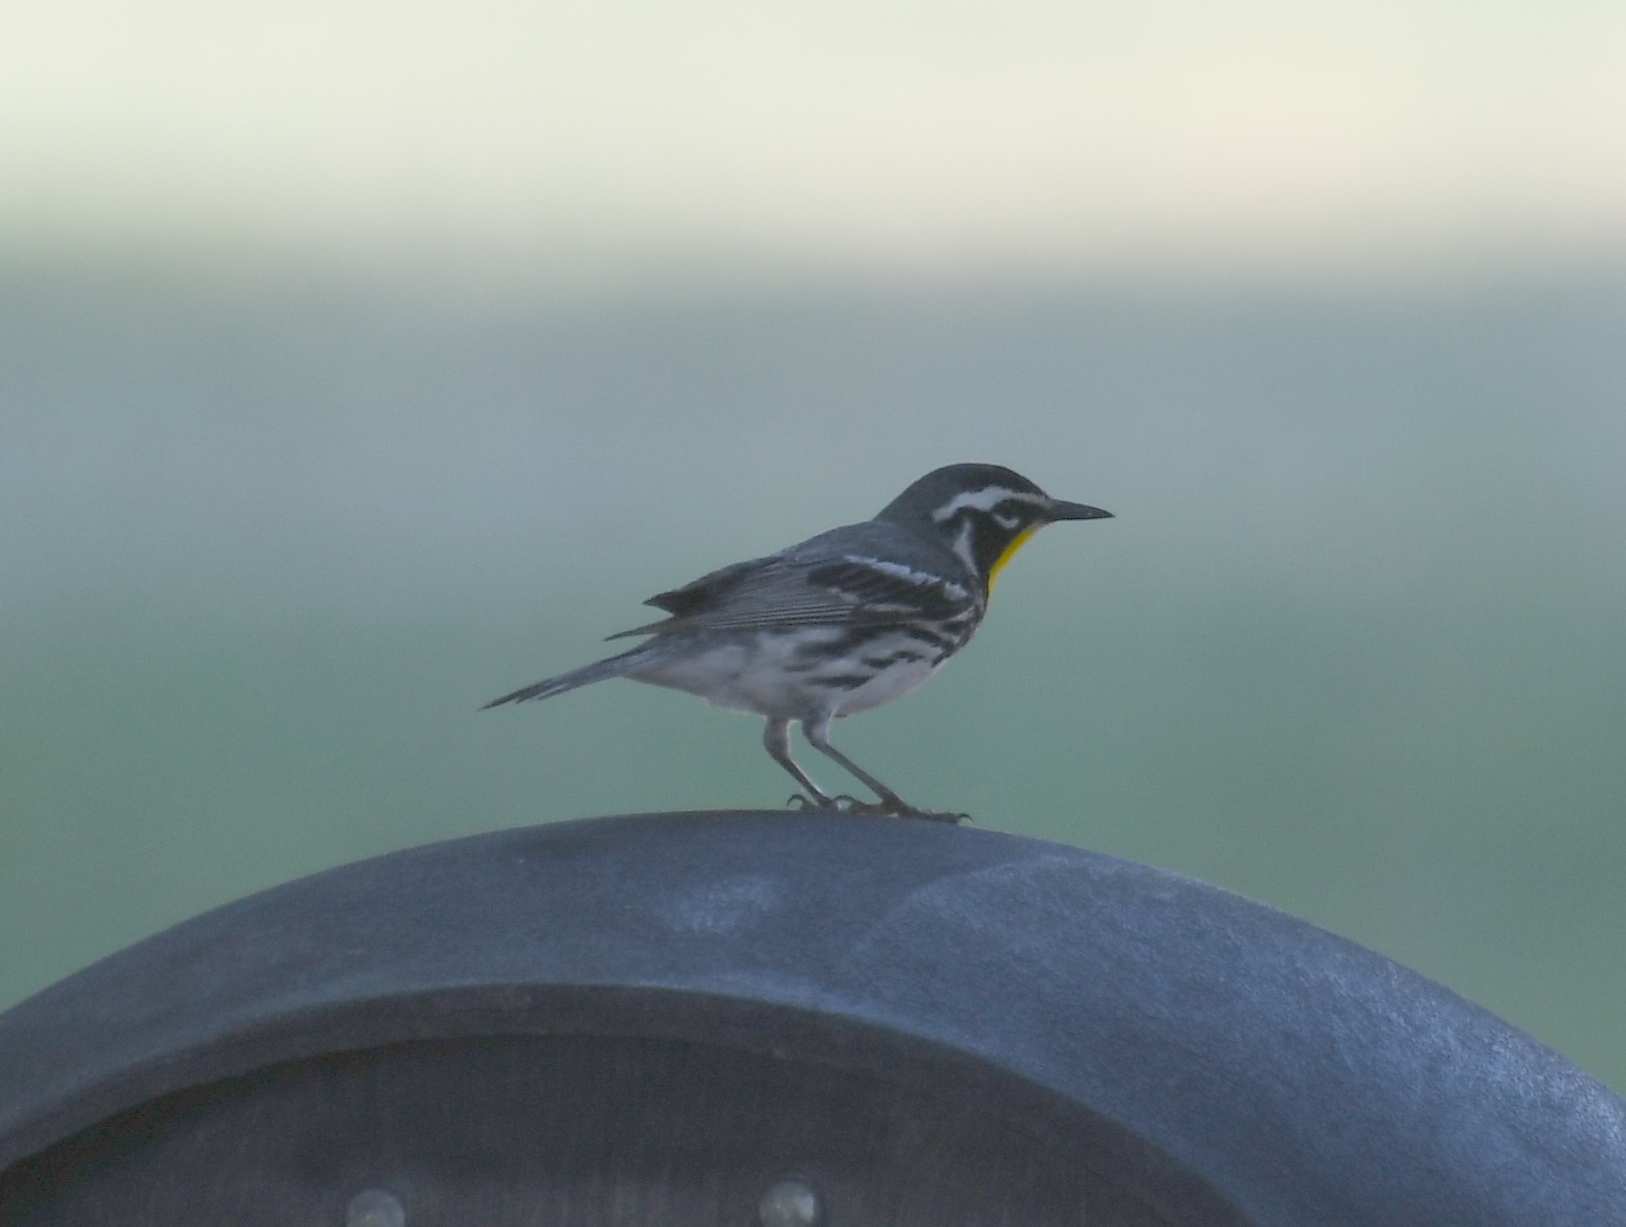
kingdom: Animalia
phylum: Chordata
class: Aves
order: Passeriformes
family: Parulidae
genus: Setophaga
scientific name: Setophaga dominica
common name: Yellow-throated warbler
